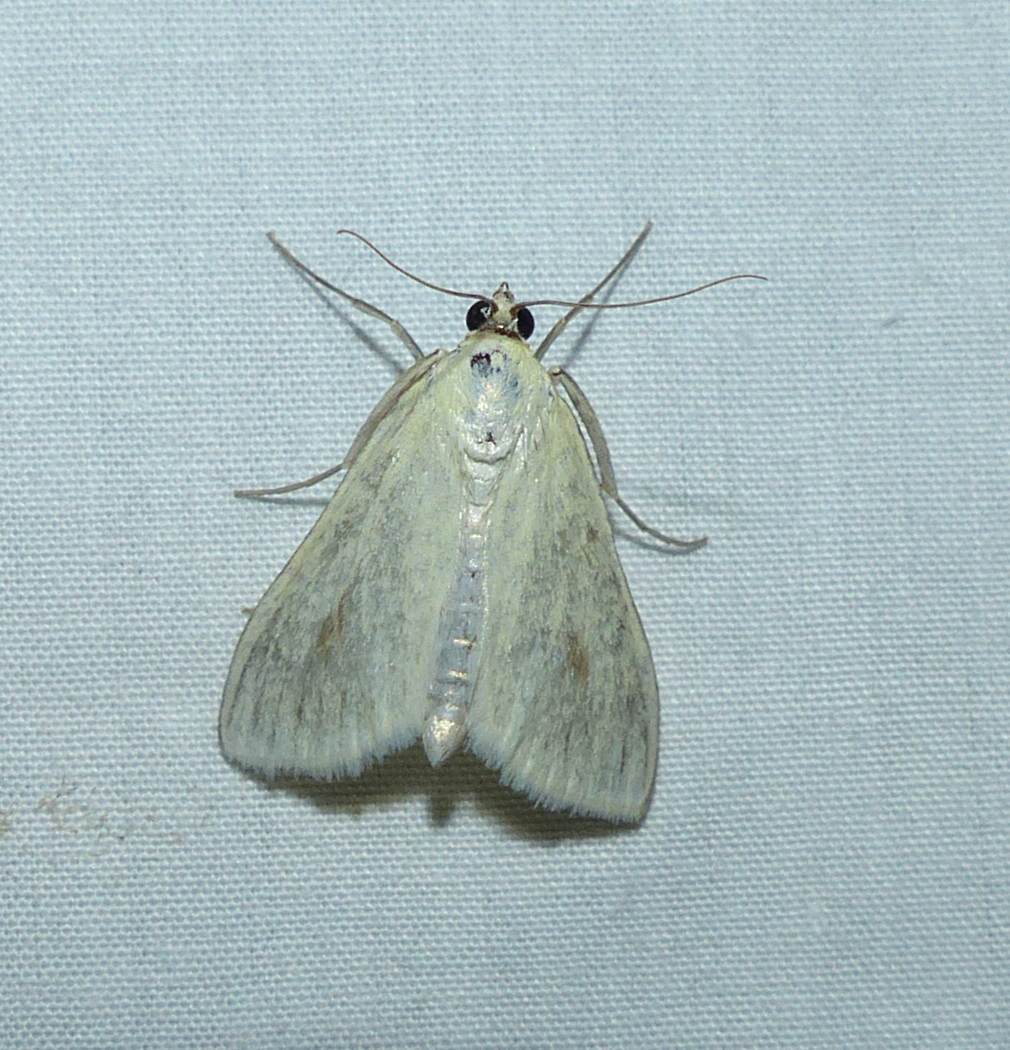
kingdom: Animalia
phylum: Arthropoda
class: Insecta
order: Lepidoptera
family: Crambidae
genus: Sitochroa
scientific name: Sitochroa palealis
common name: Greenish-yellow sitochroa moth
